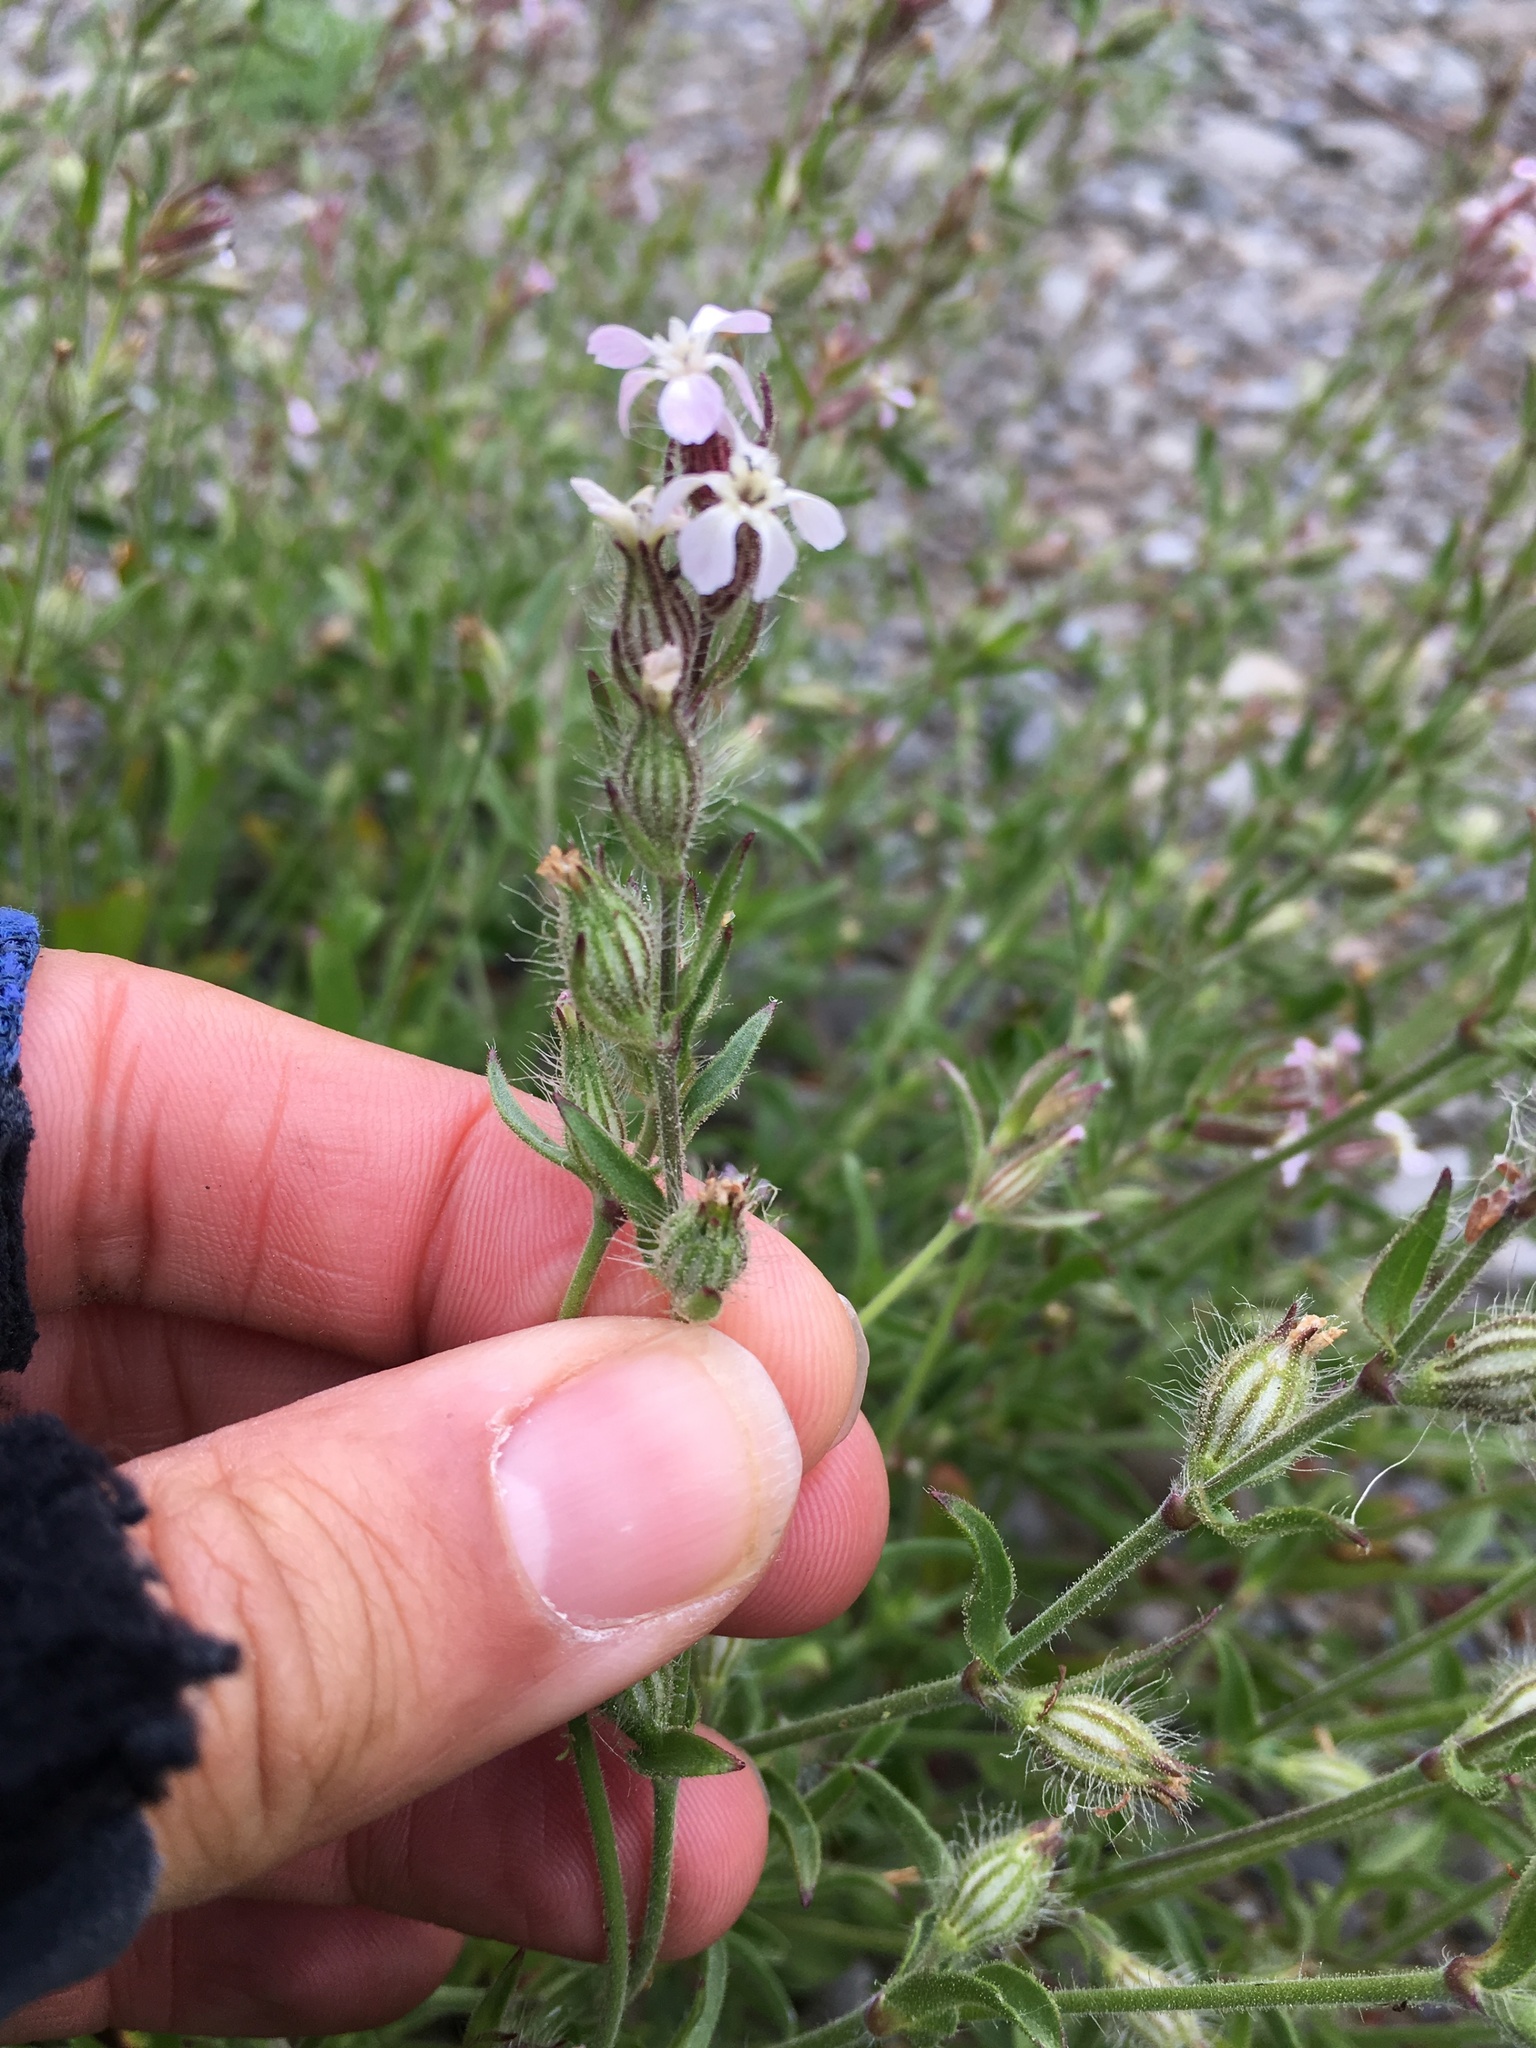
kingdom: Plantae
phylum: Tracheophyta
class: Magnoliopsida
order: Caryophyllales
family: Caryophyllaceae
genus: Silene
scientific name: Silene gallica
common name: Small-flowered catchfly
